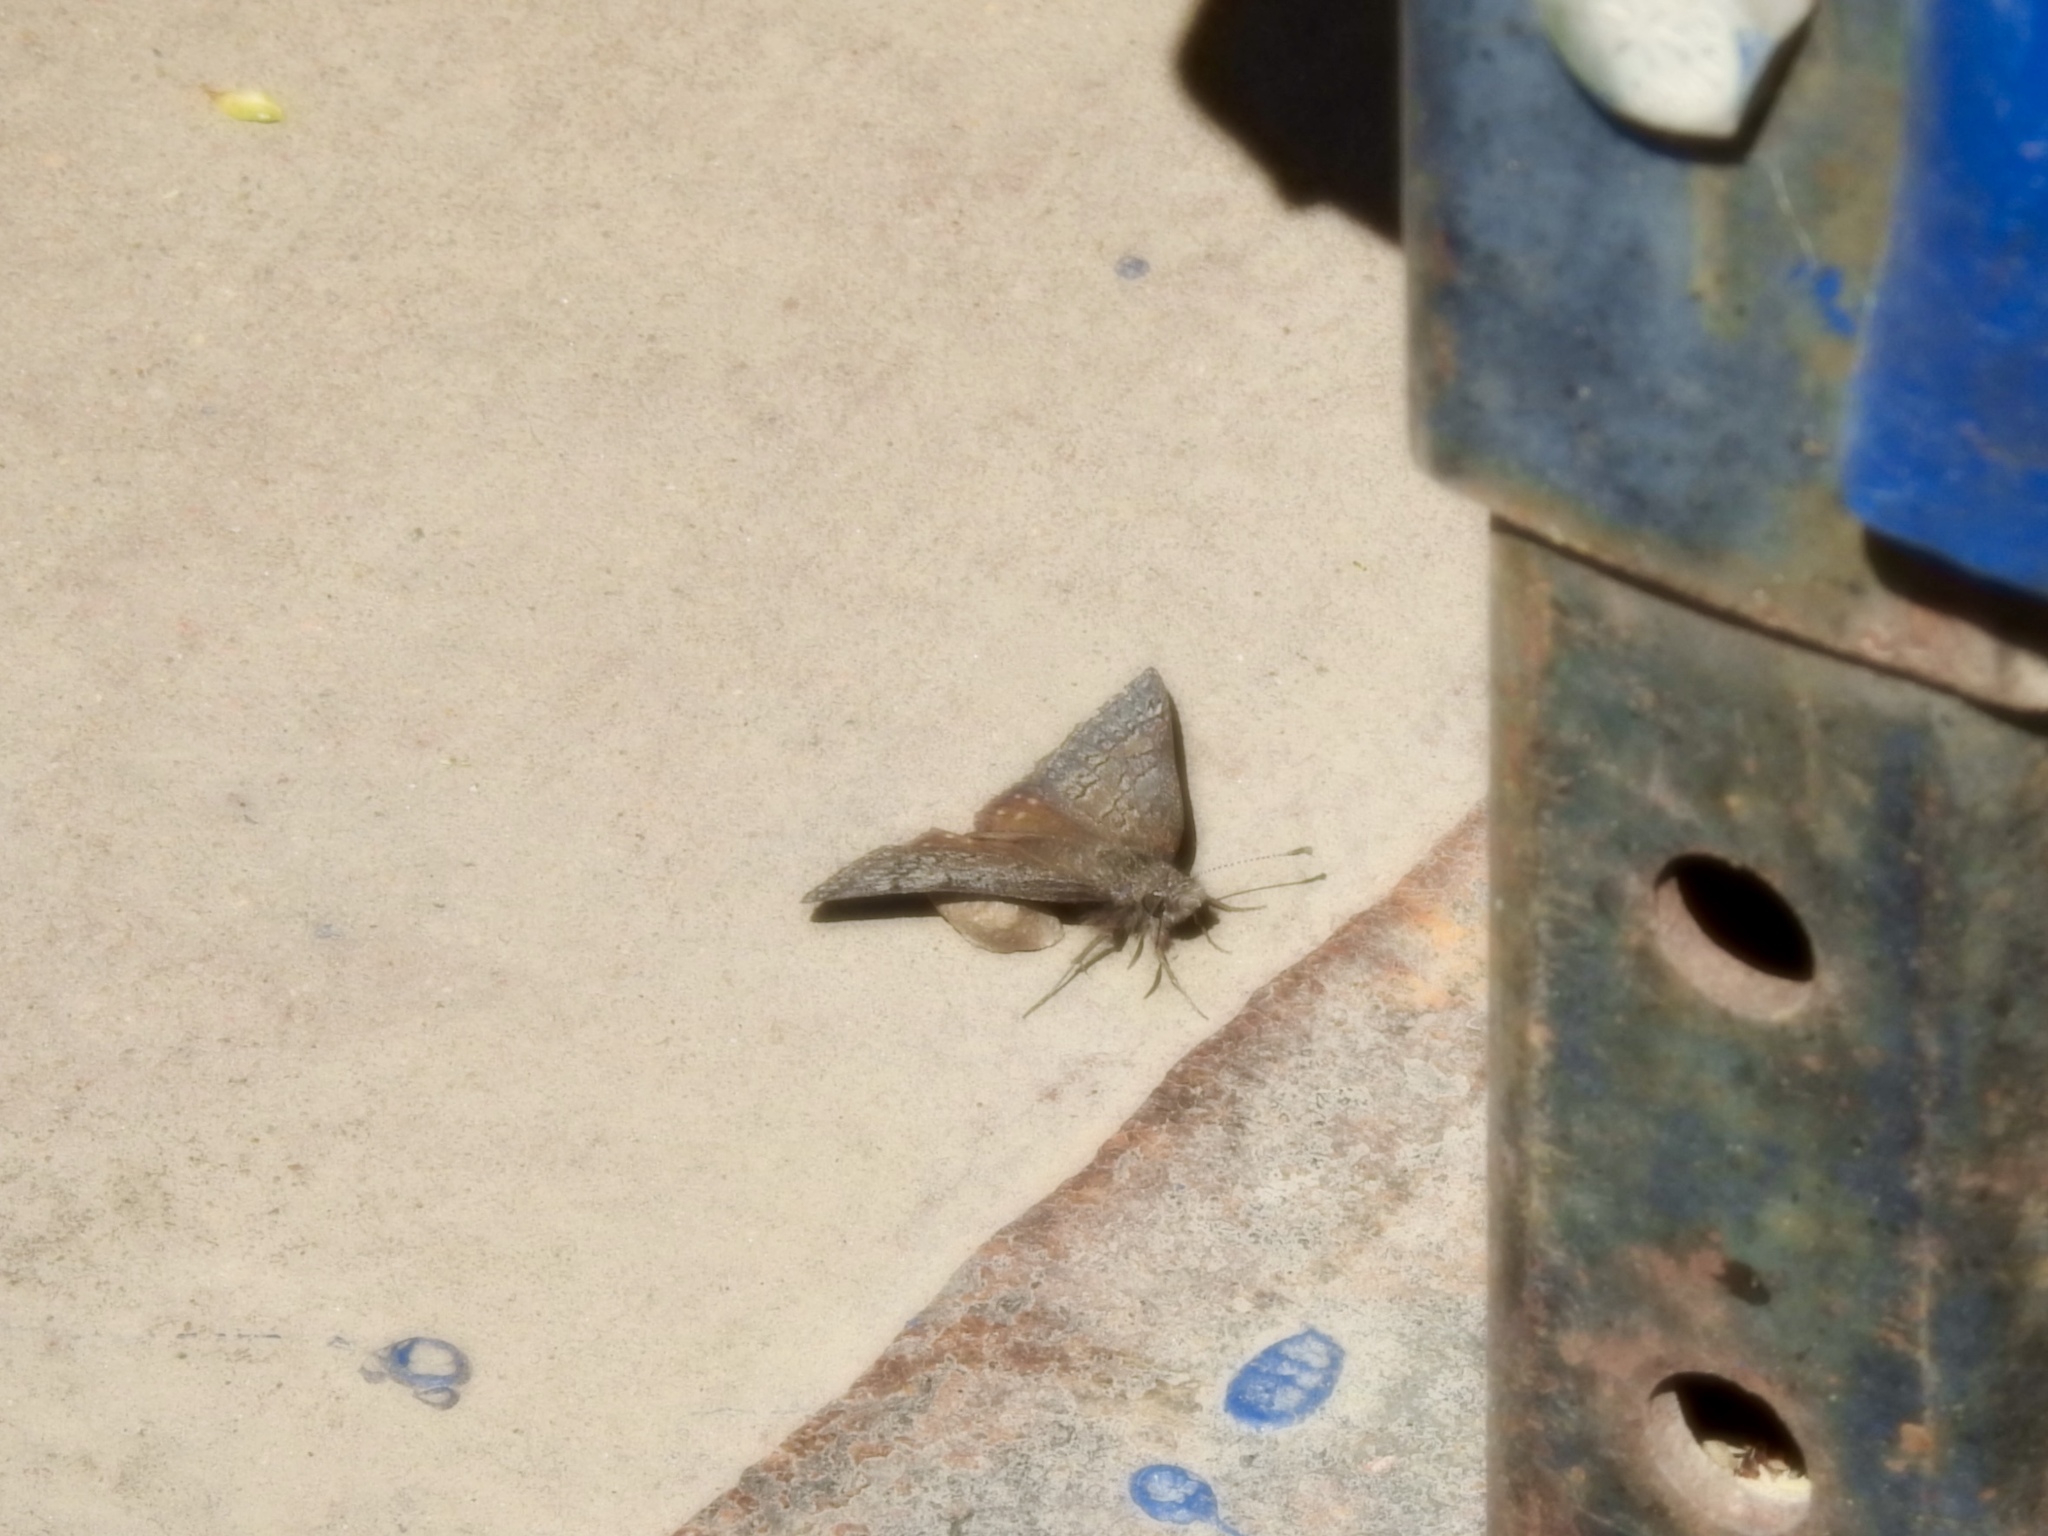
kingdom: Animalia
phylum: Arthropoda
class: Insecta
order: Lepidoptera
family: Hesperiidae
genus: Erynnis
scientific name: Erynnis brizo
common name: Sleepy duskywing
